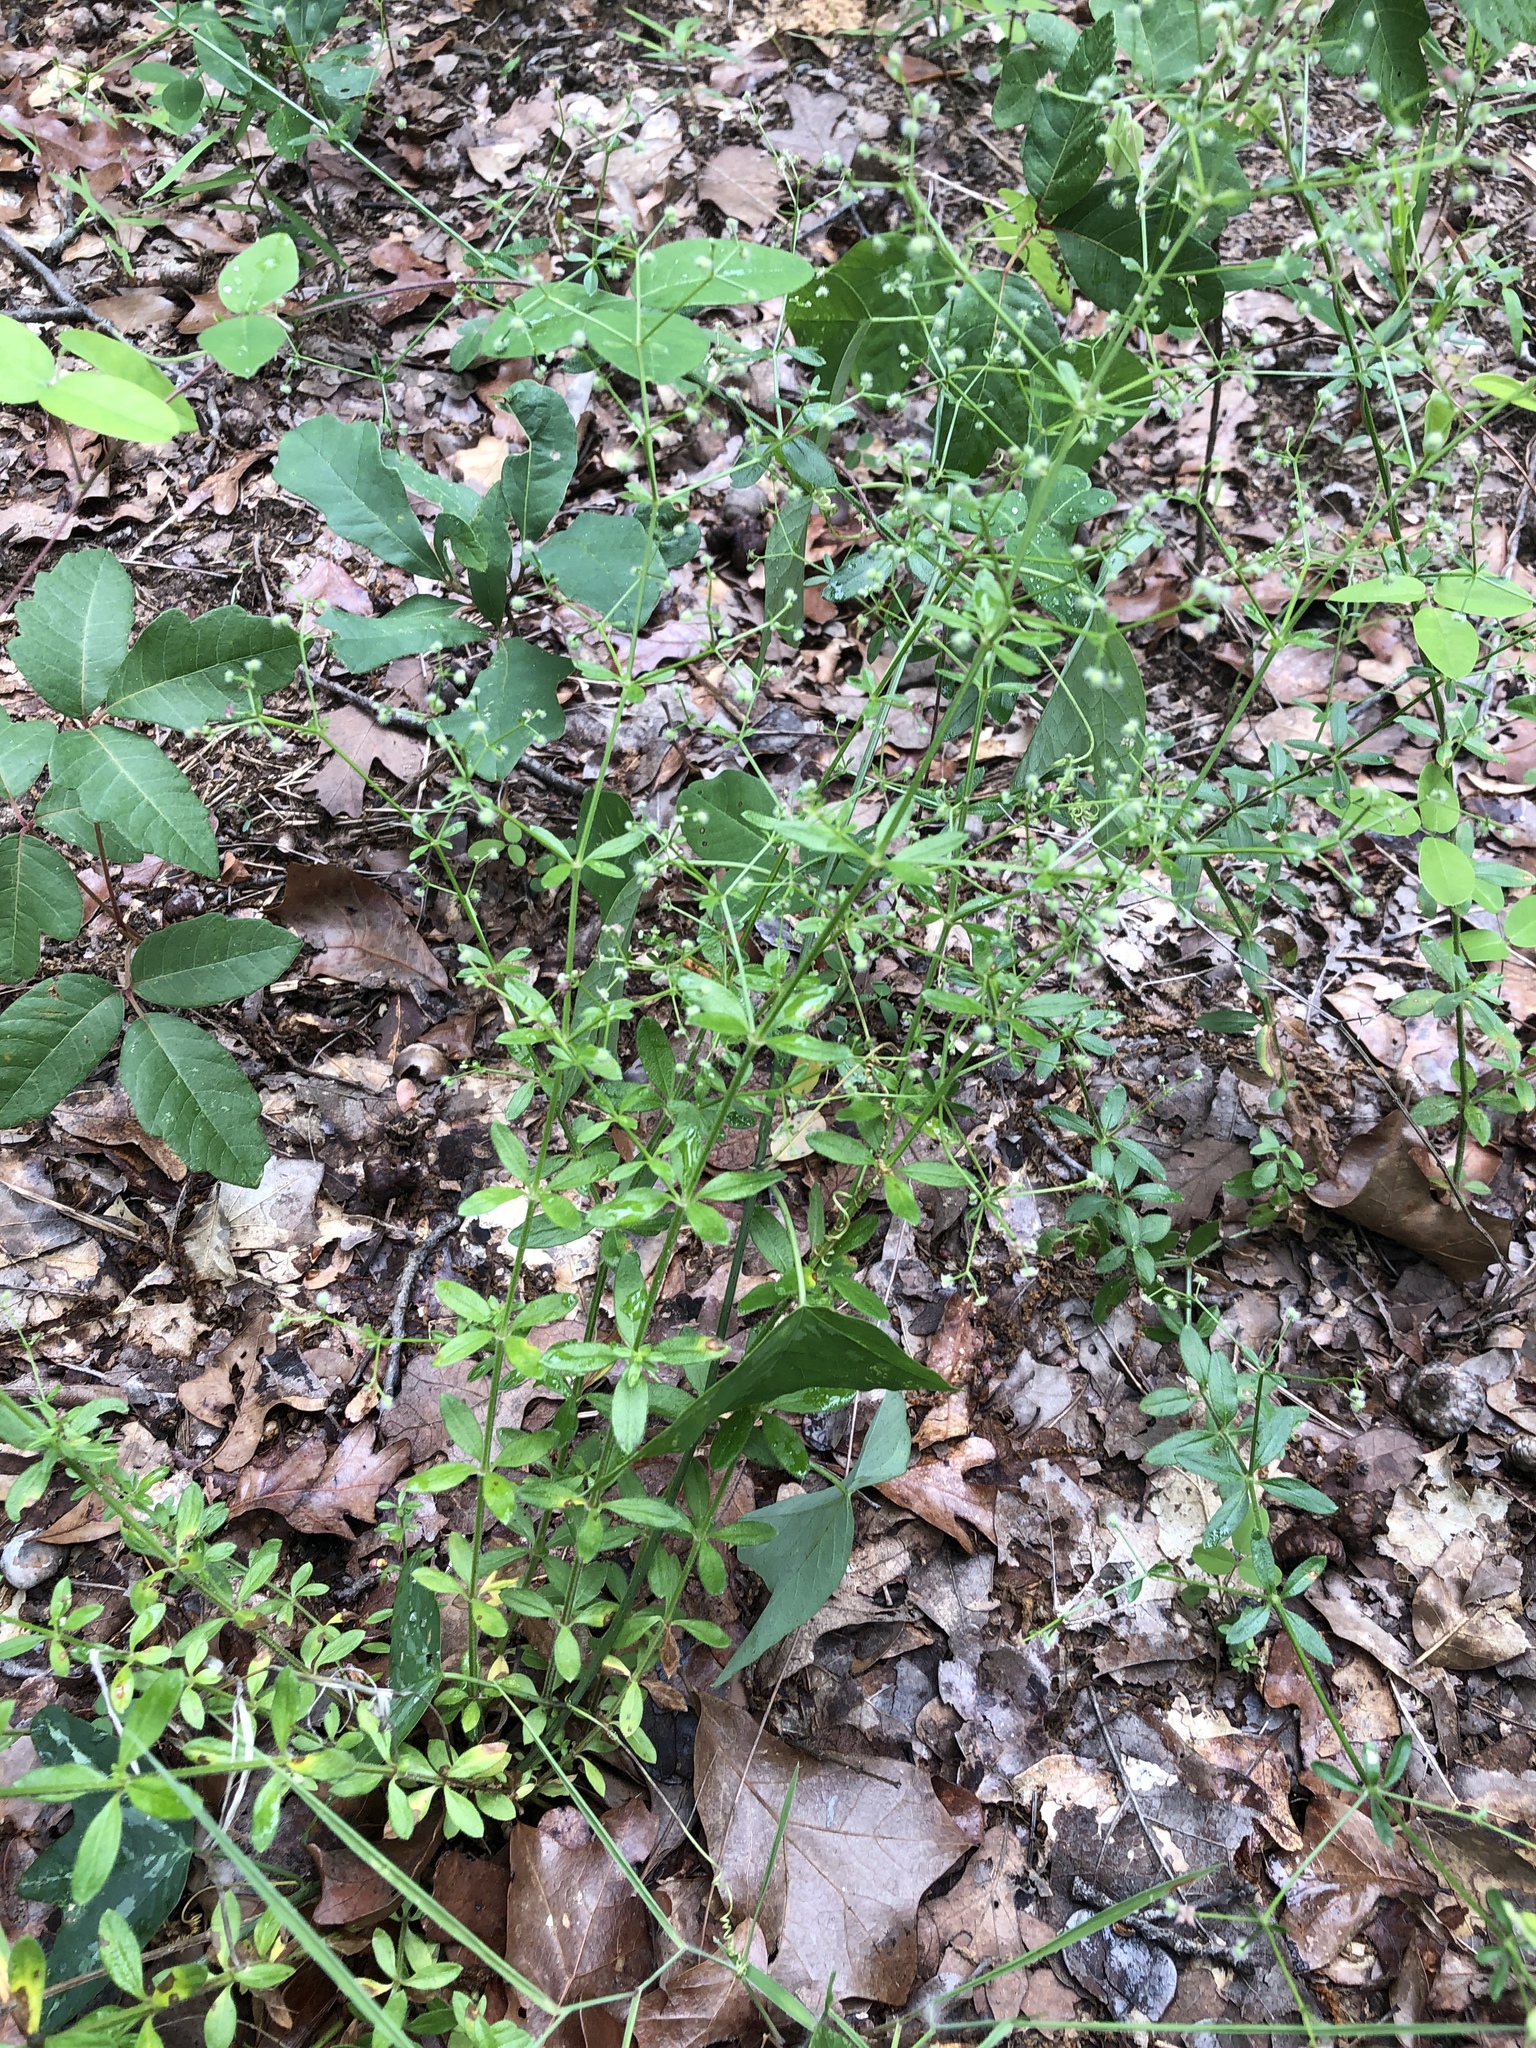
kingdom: Plantae
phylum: Tracheophyta
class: Magnoliopsida
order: Gentianales
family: Rubiaceae
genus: Galium
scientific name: Galium pilosum
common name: Hairy bedstraw
